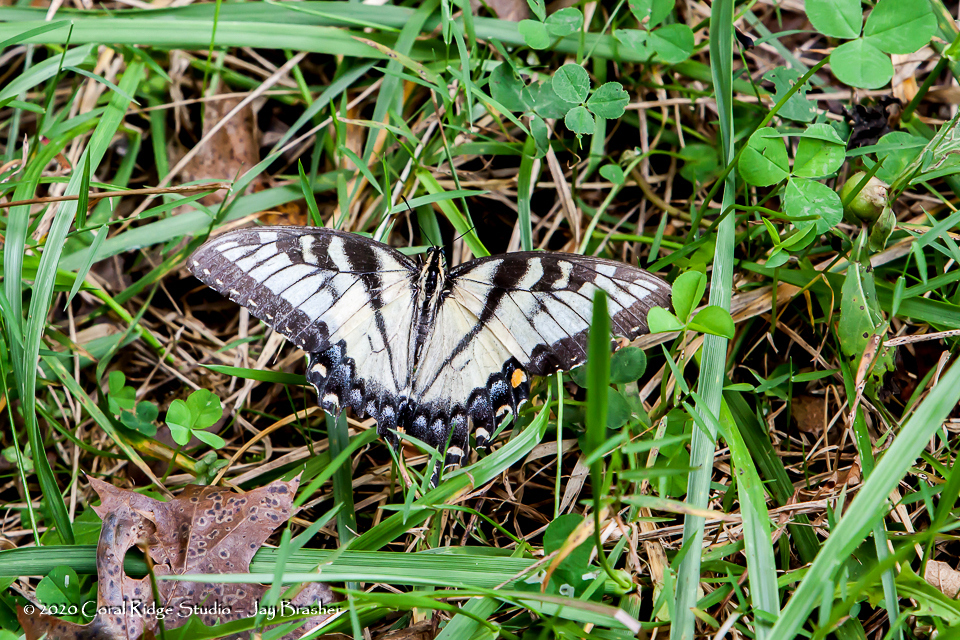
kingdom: Animalia
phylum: Arthropoda
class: Insecta
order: Lepidoptera
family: Papilionidae
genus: Papilio
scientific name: Papilio glaucus
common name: Tiger swallowtail
